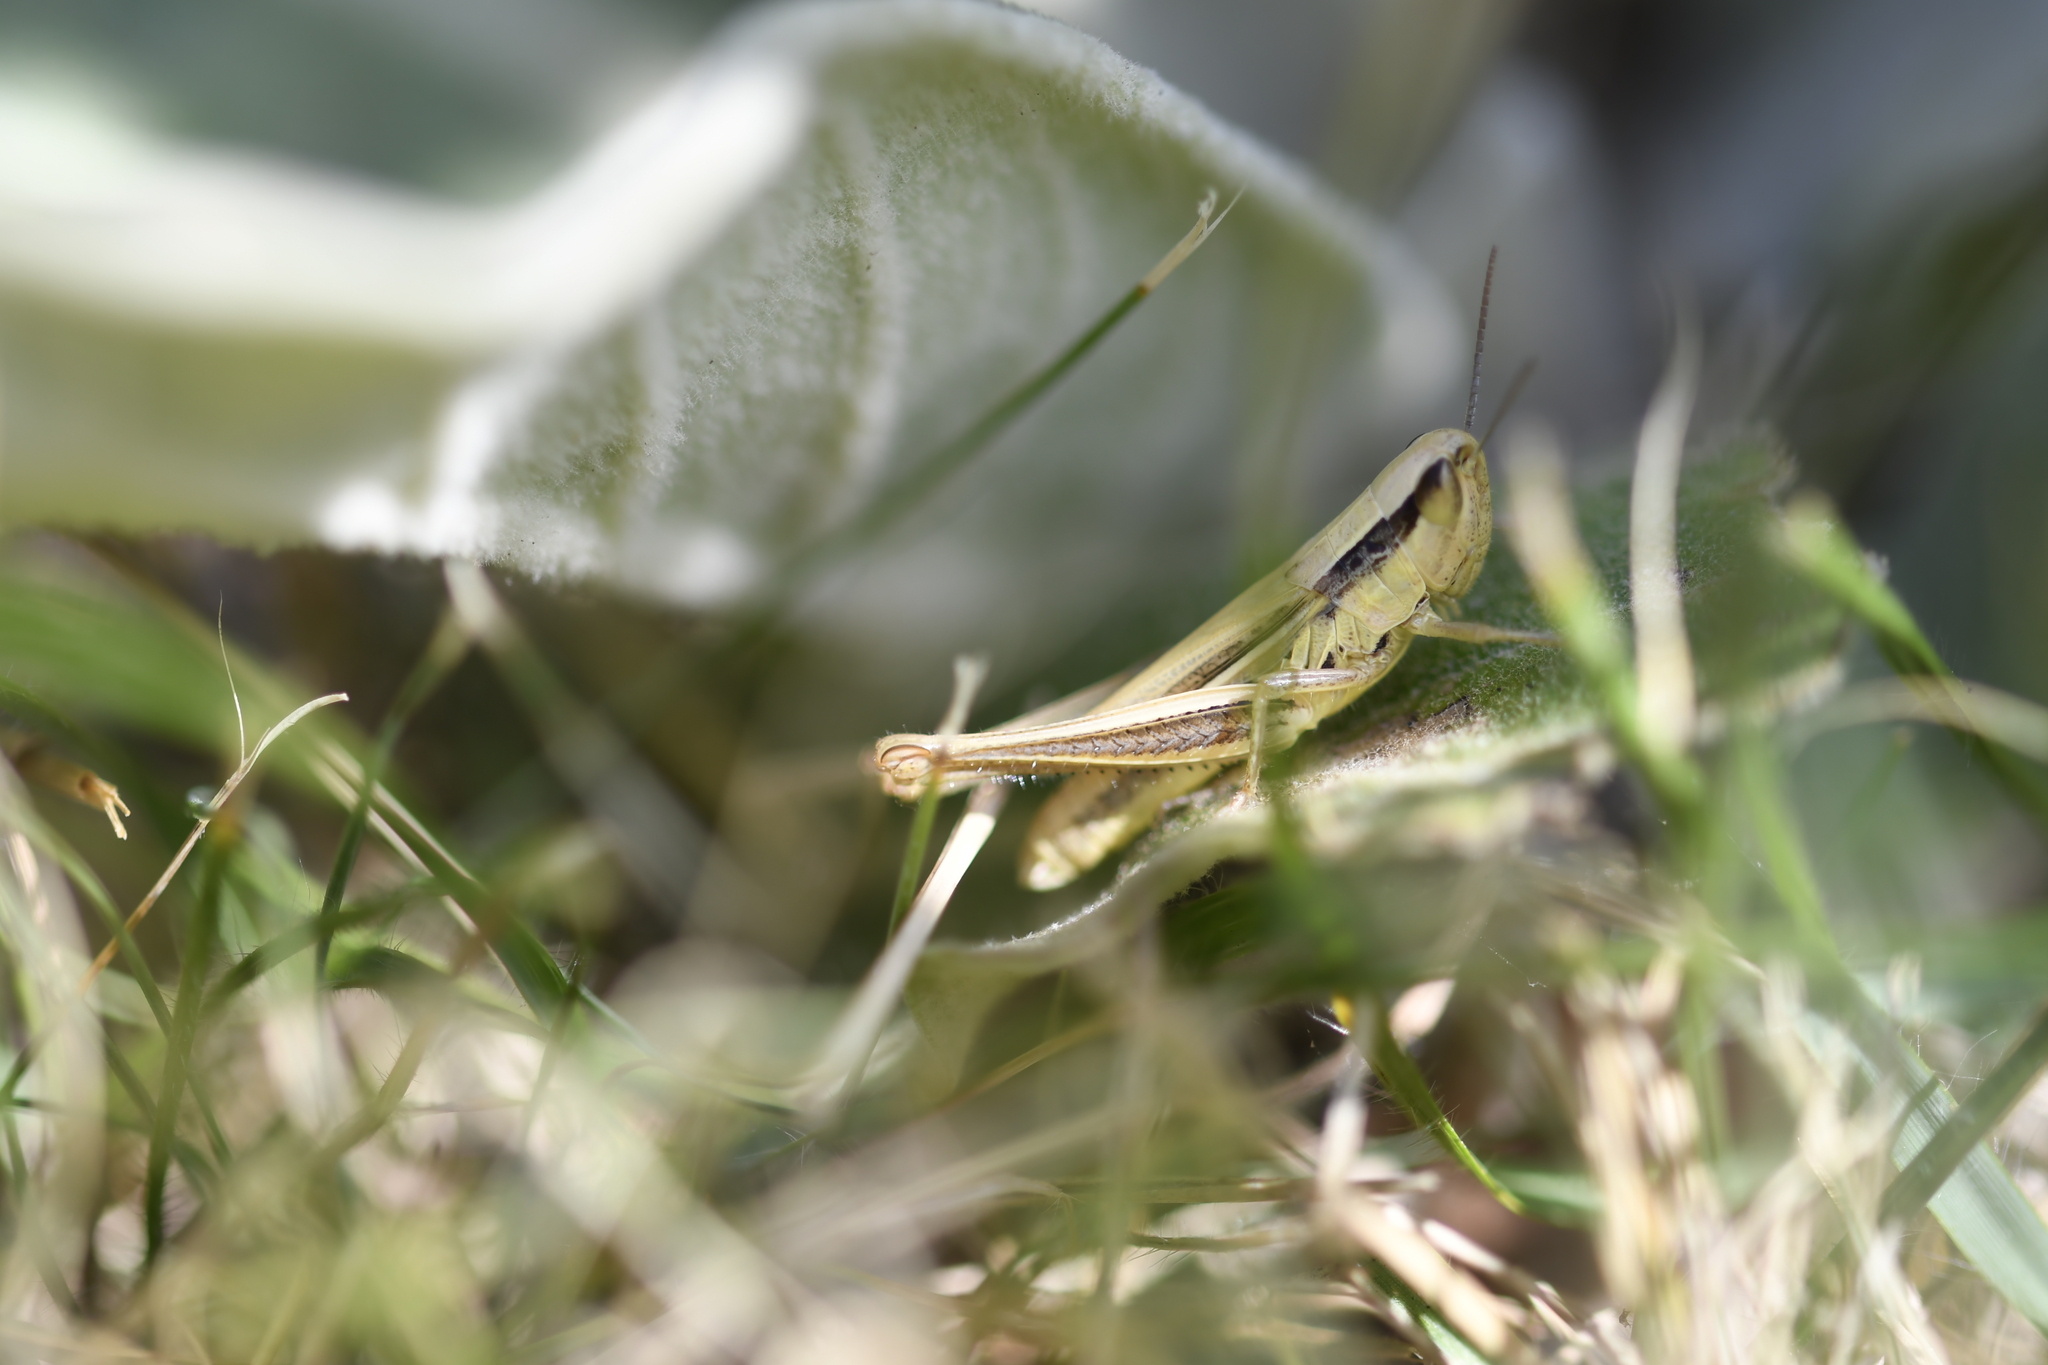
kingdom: Animalia
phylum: Arthropoda
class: Insecta
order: Orthoptera
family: Acrididae
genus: Euchorthippus
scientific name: Euchorthippus declivus
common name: Common straw grasshopper
